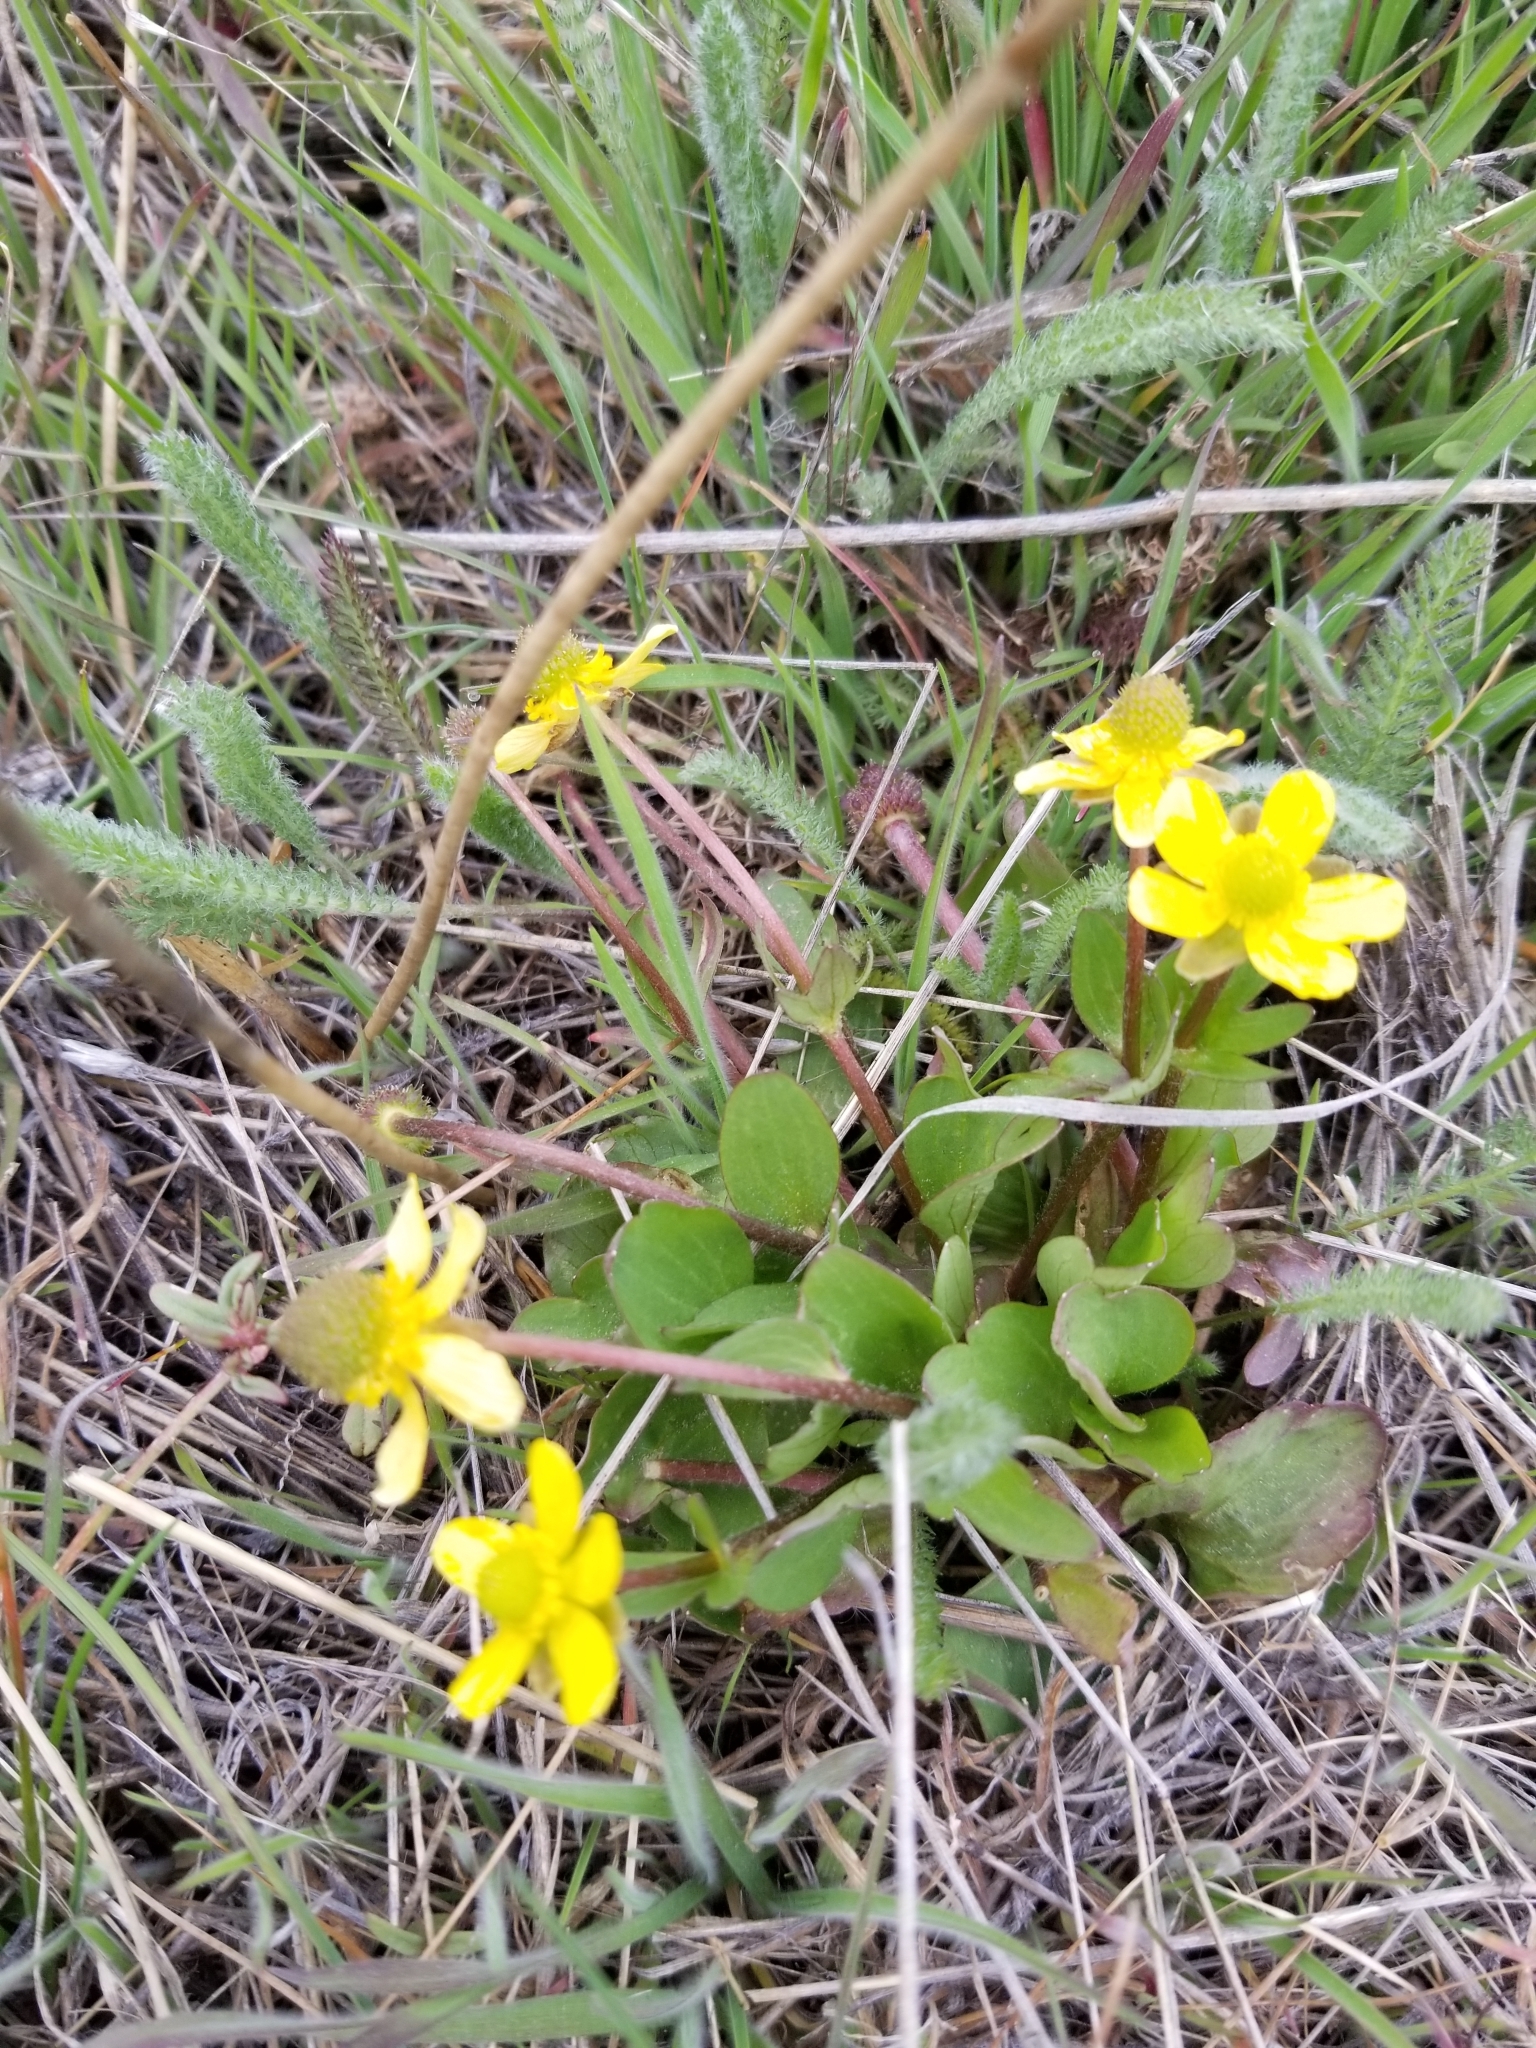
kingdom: Plantae
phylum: Tracheophyta
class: Magnoliopsida
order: Ranunculales
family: Ranunculaceae
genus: Ranunculus
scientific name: Ranunculus glaberrimus
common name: Sagebrush buttercup
